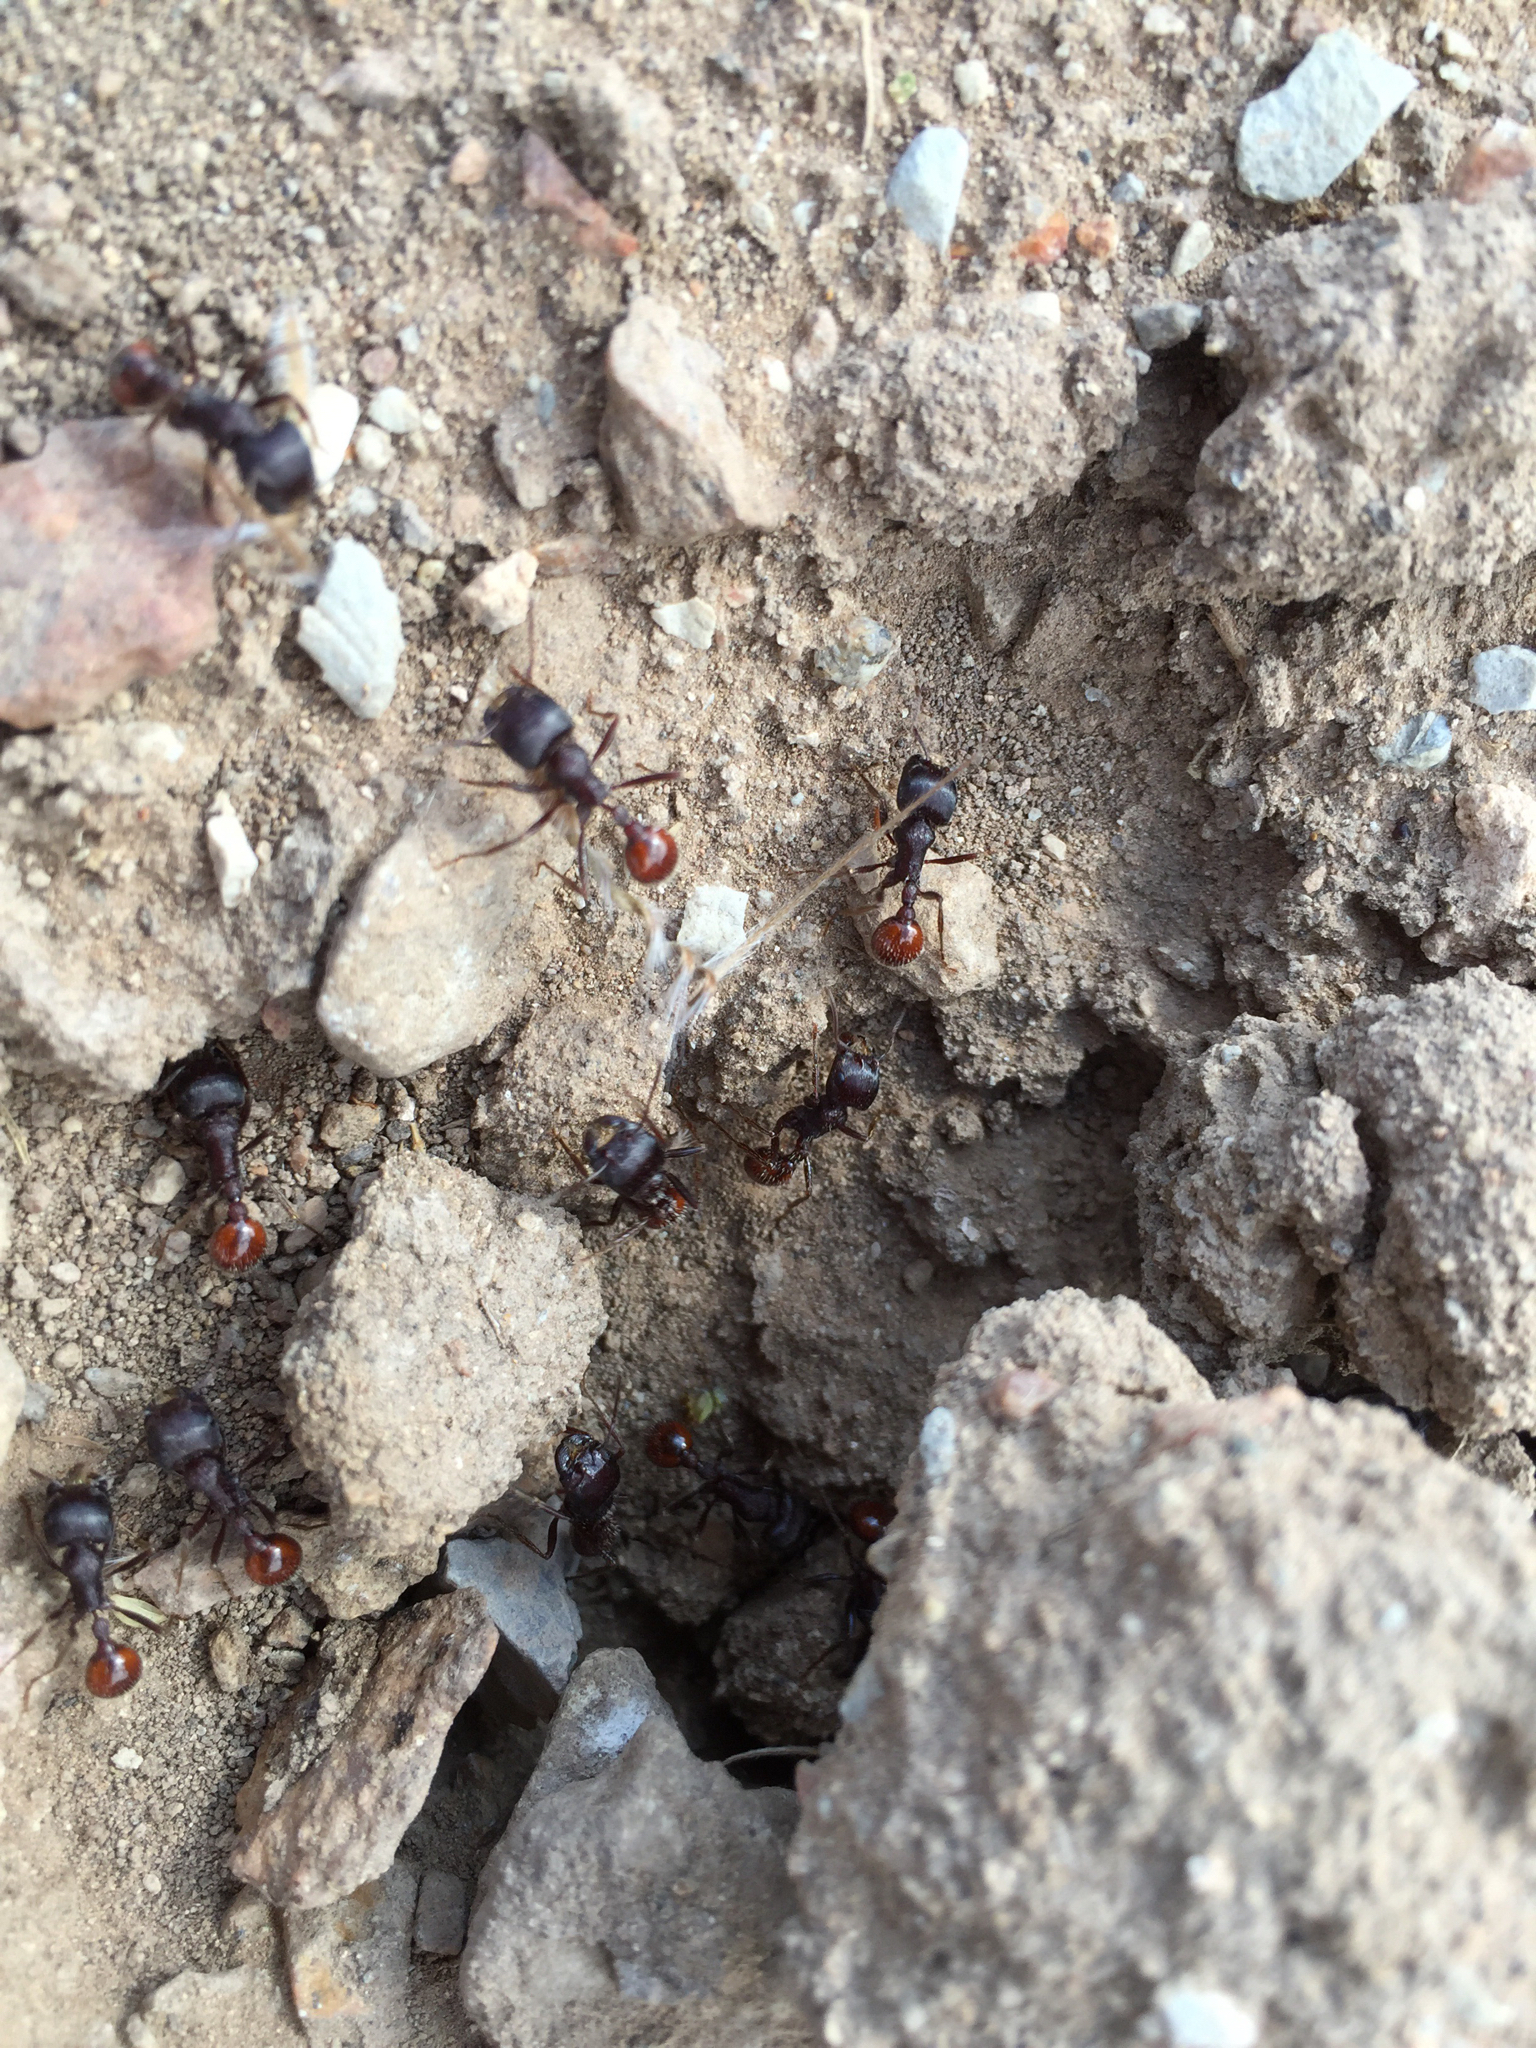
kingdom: Animalia
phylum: Arthropoda
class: Insecta
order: Hymenoptera
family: Formicidae
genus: Pogonomyrmex
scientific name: Pogonomyrmex rugosus
